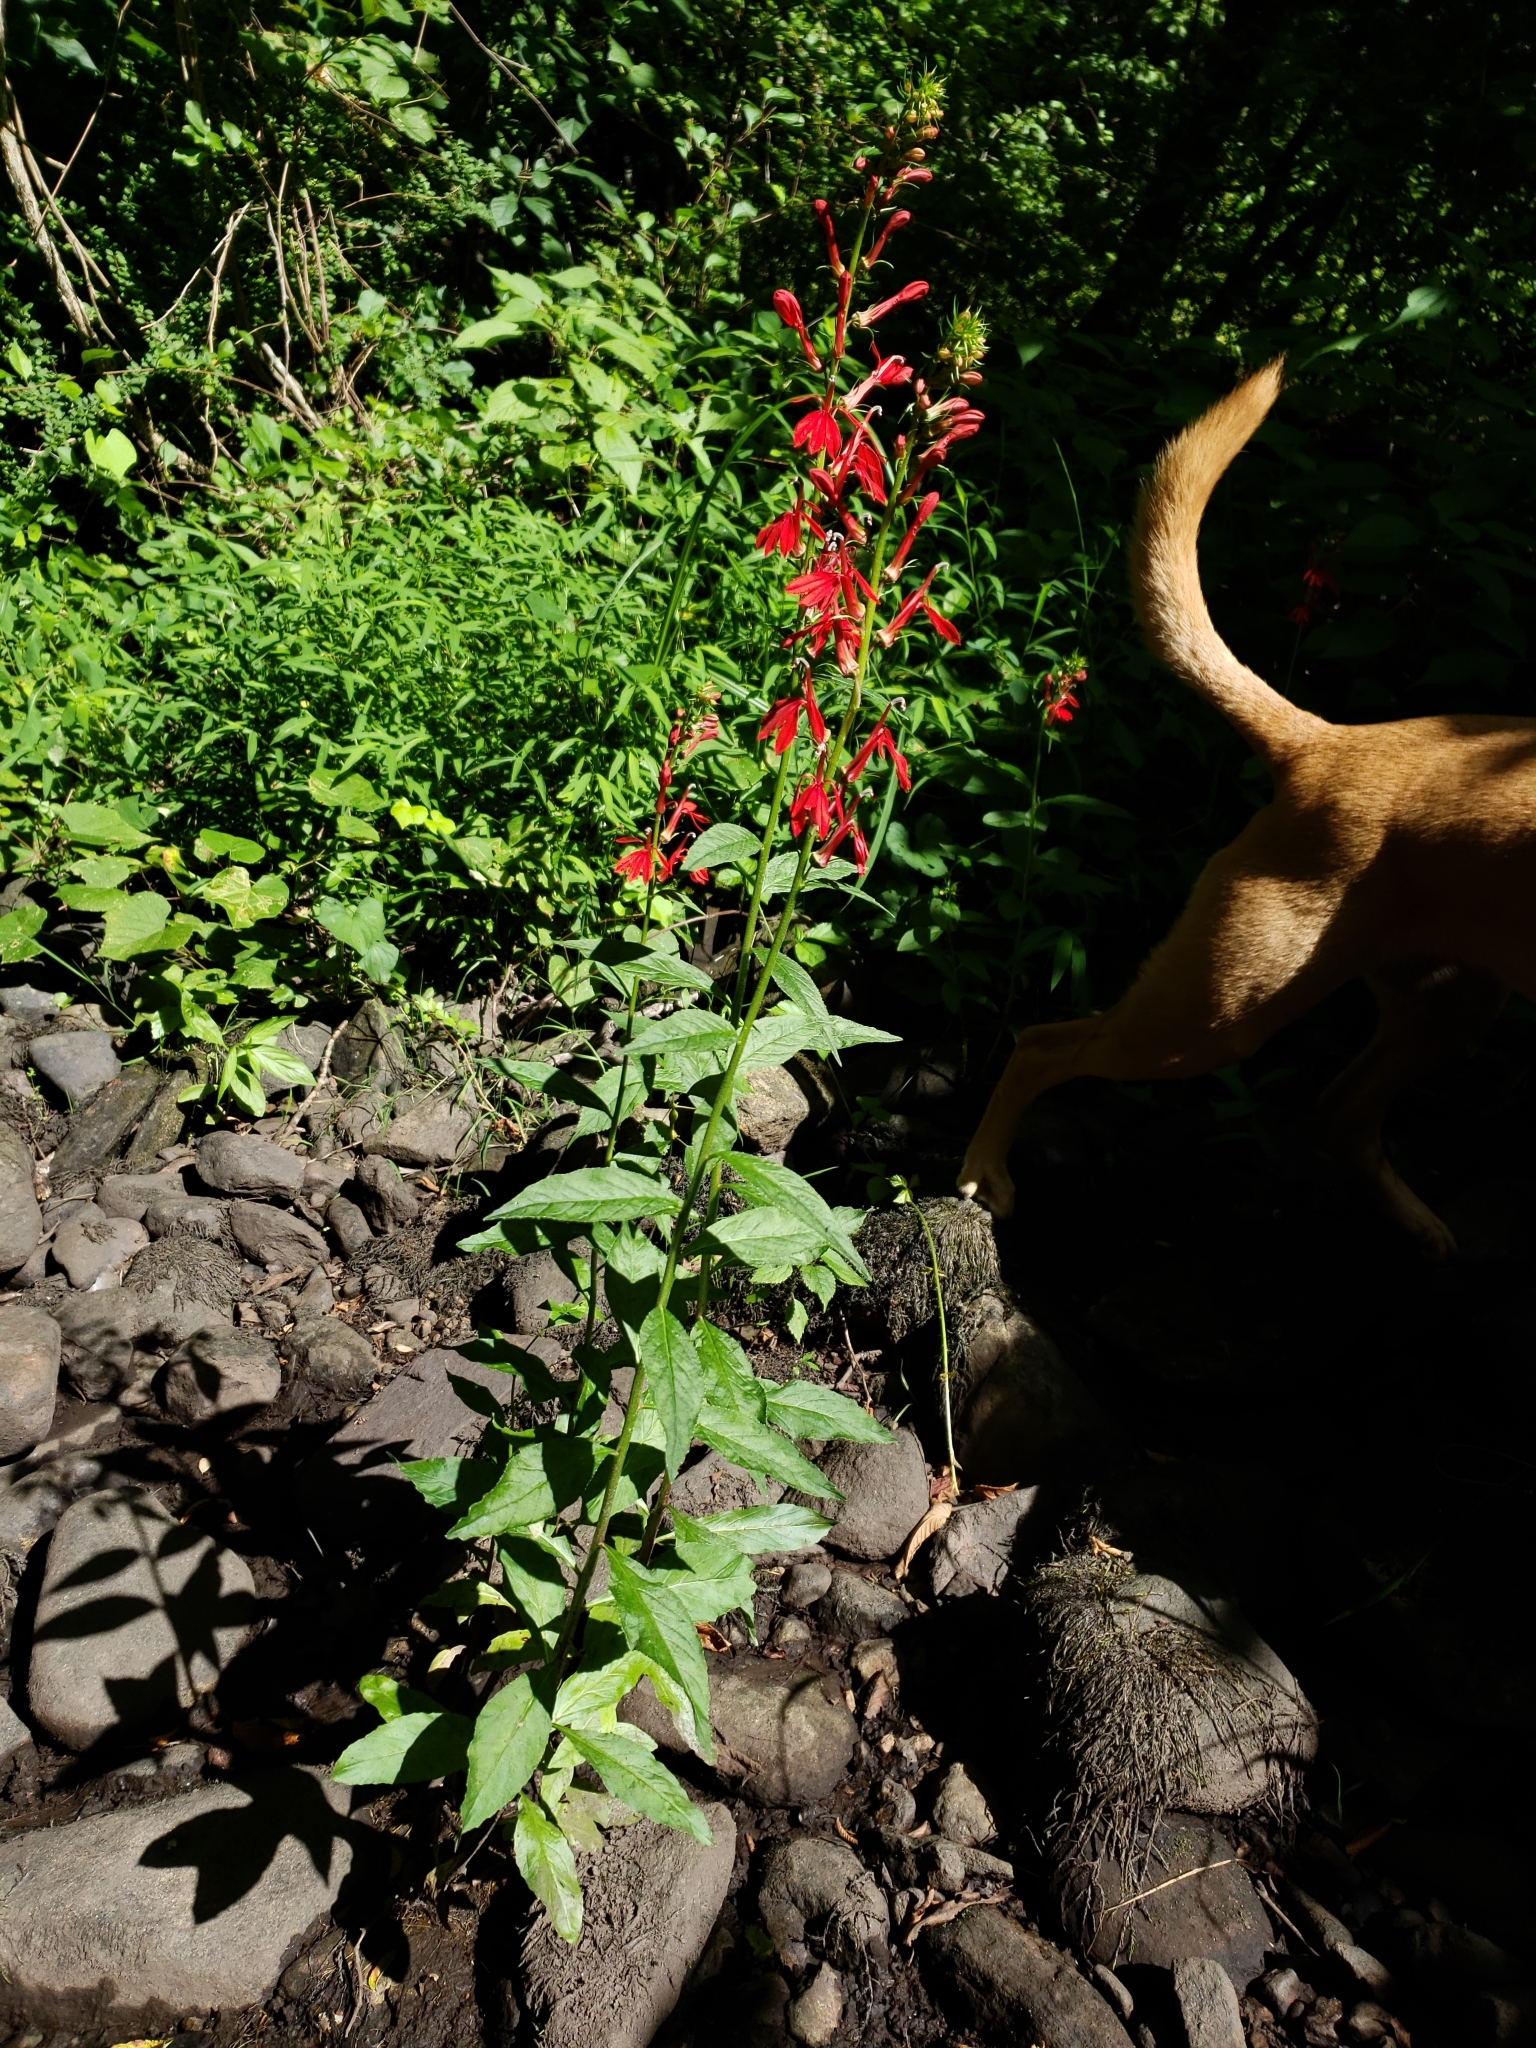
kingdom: Plantae
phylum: Tracheophyta
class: Magnoliopsida
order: Asterales
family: Campanulaceae
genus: Lobelia
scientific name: Lobelia cardinalis
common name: Cardinal flower
